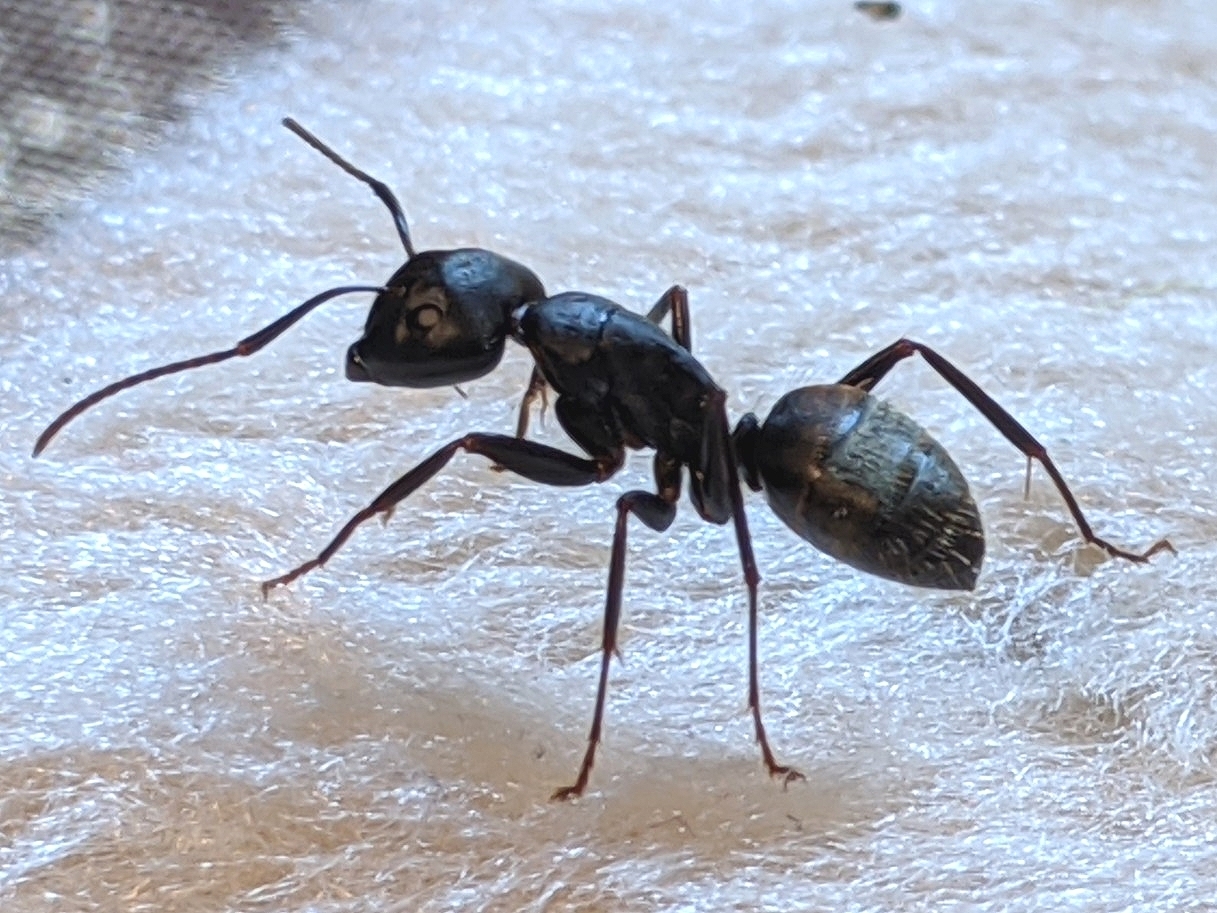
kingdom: Animalia
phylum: Arthropoda
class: Insecta
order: Hymenoptera
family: Formicidae
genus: Camponotus
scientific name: Camponotus pennsylvanicus
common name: Black carpenter ant
